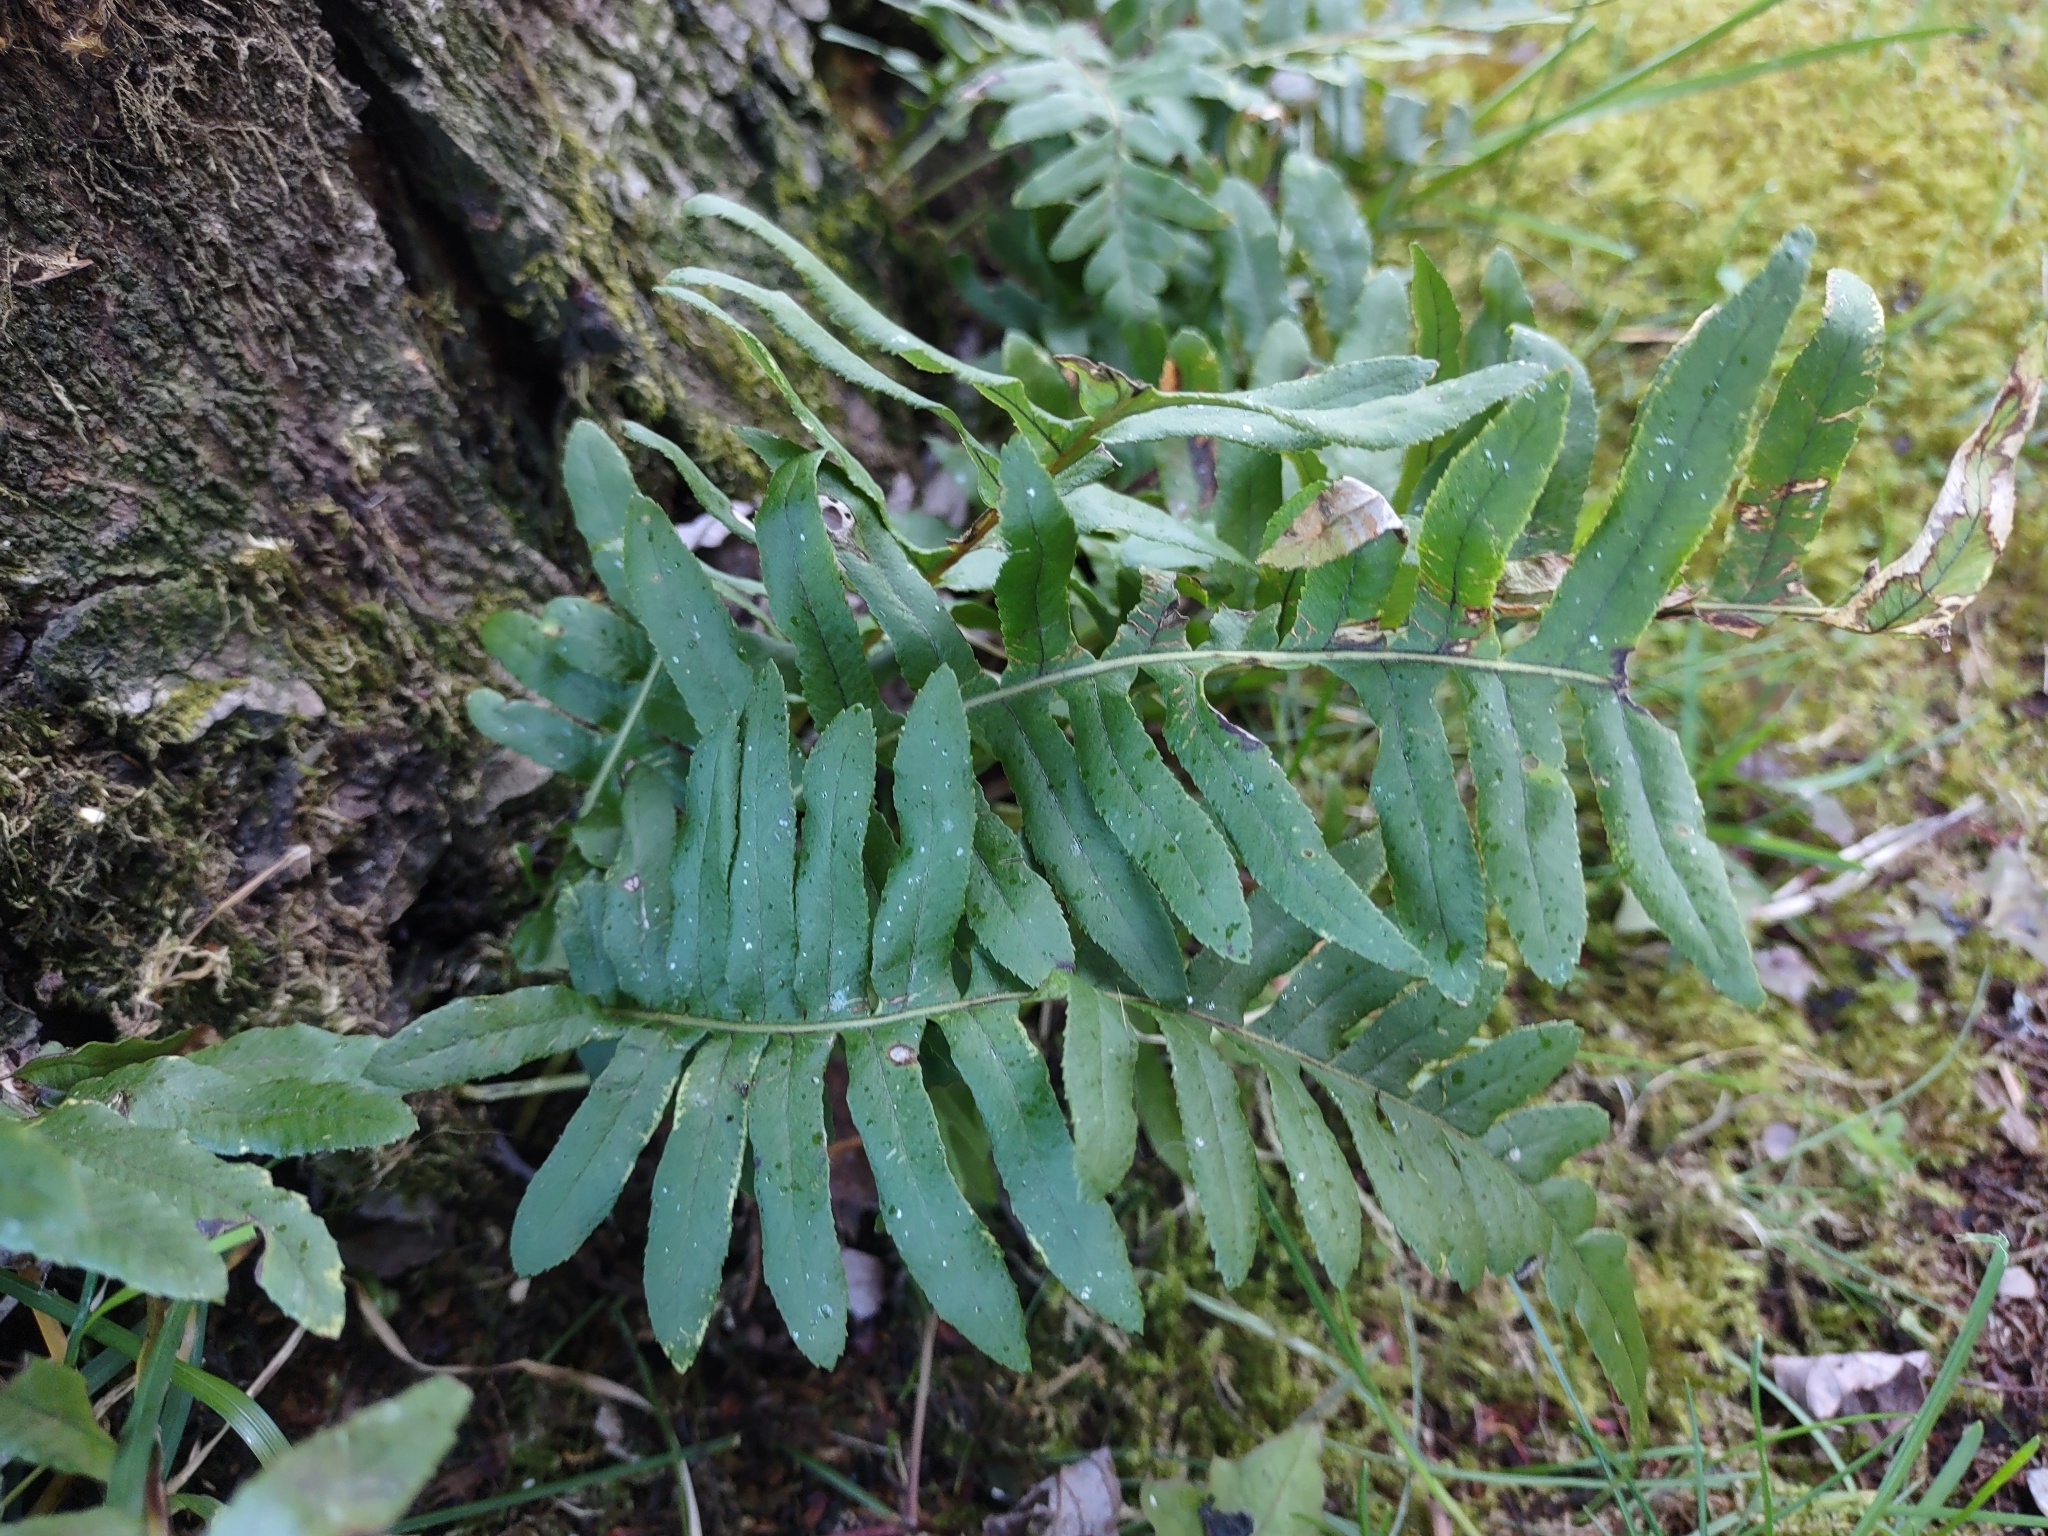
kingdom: Plantae
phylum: Tracheophyta
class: Polypodiopsida
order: Polypodiales
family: Polypodiaceae
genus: Polypodium
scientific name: Polypodium glycyrrhiza
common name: Licorice fern
